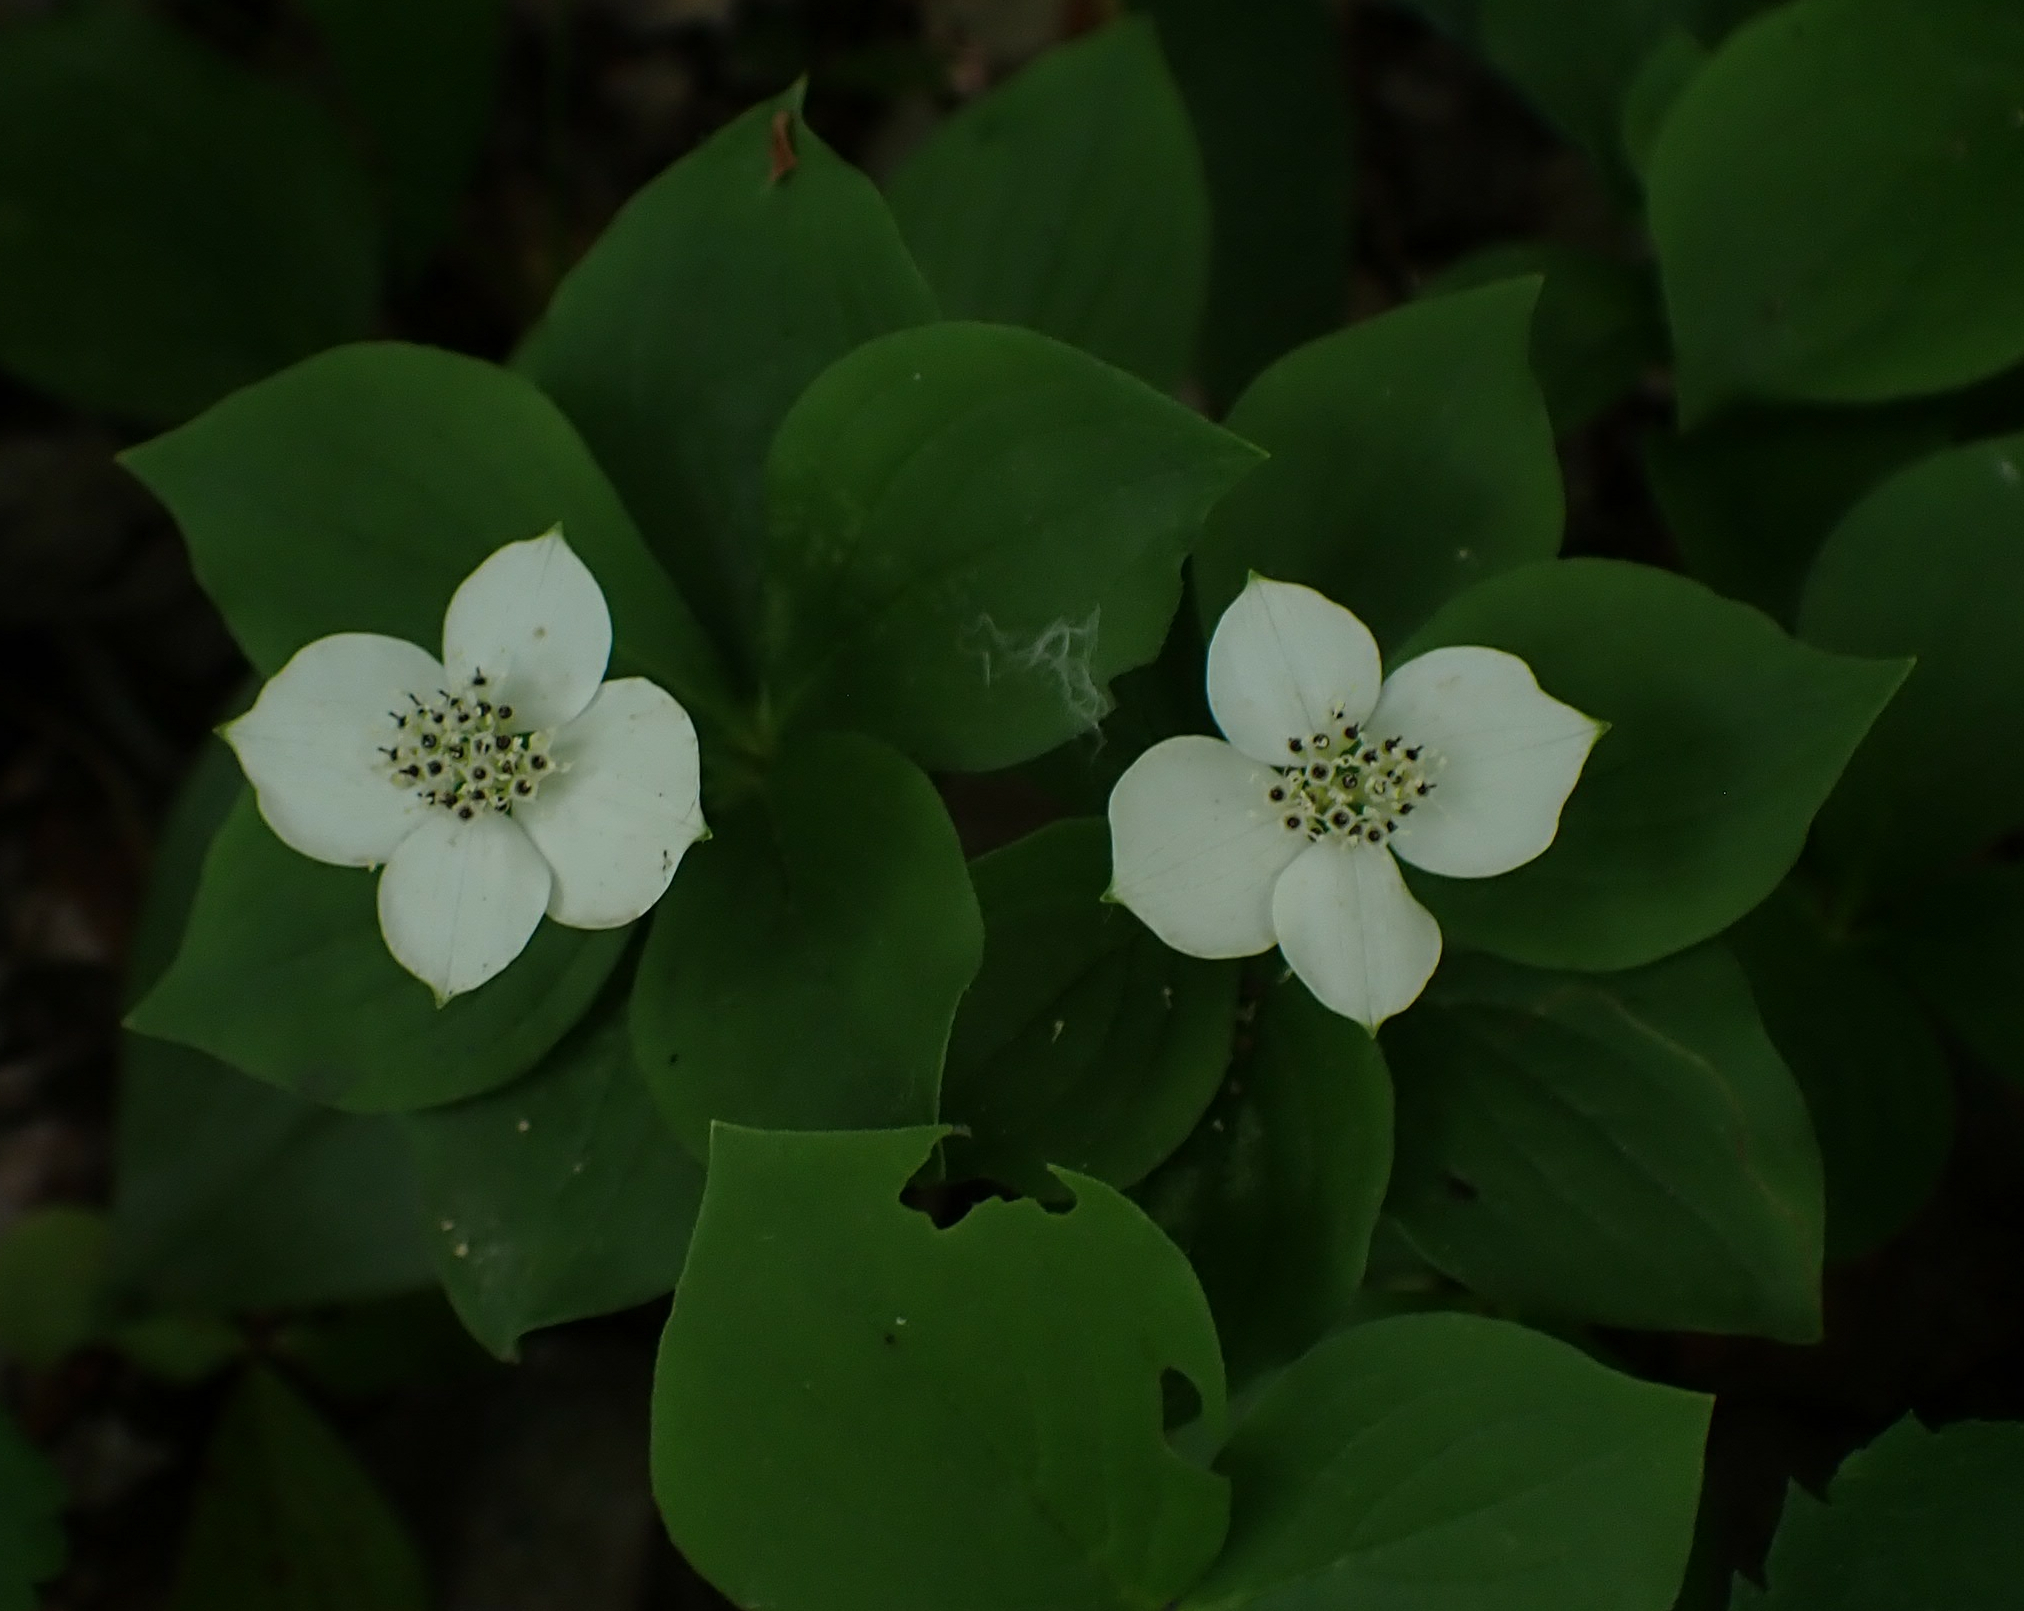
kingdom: Plantae
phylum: Tracheophyta
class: Magnoliopsida
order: Cornales
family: Cornaceae
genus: Cornus
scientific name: Cornus canadensis
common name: Creeping dogwood
